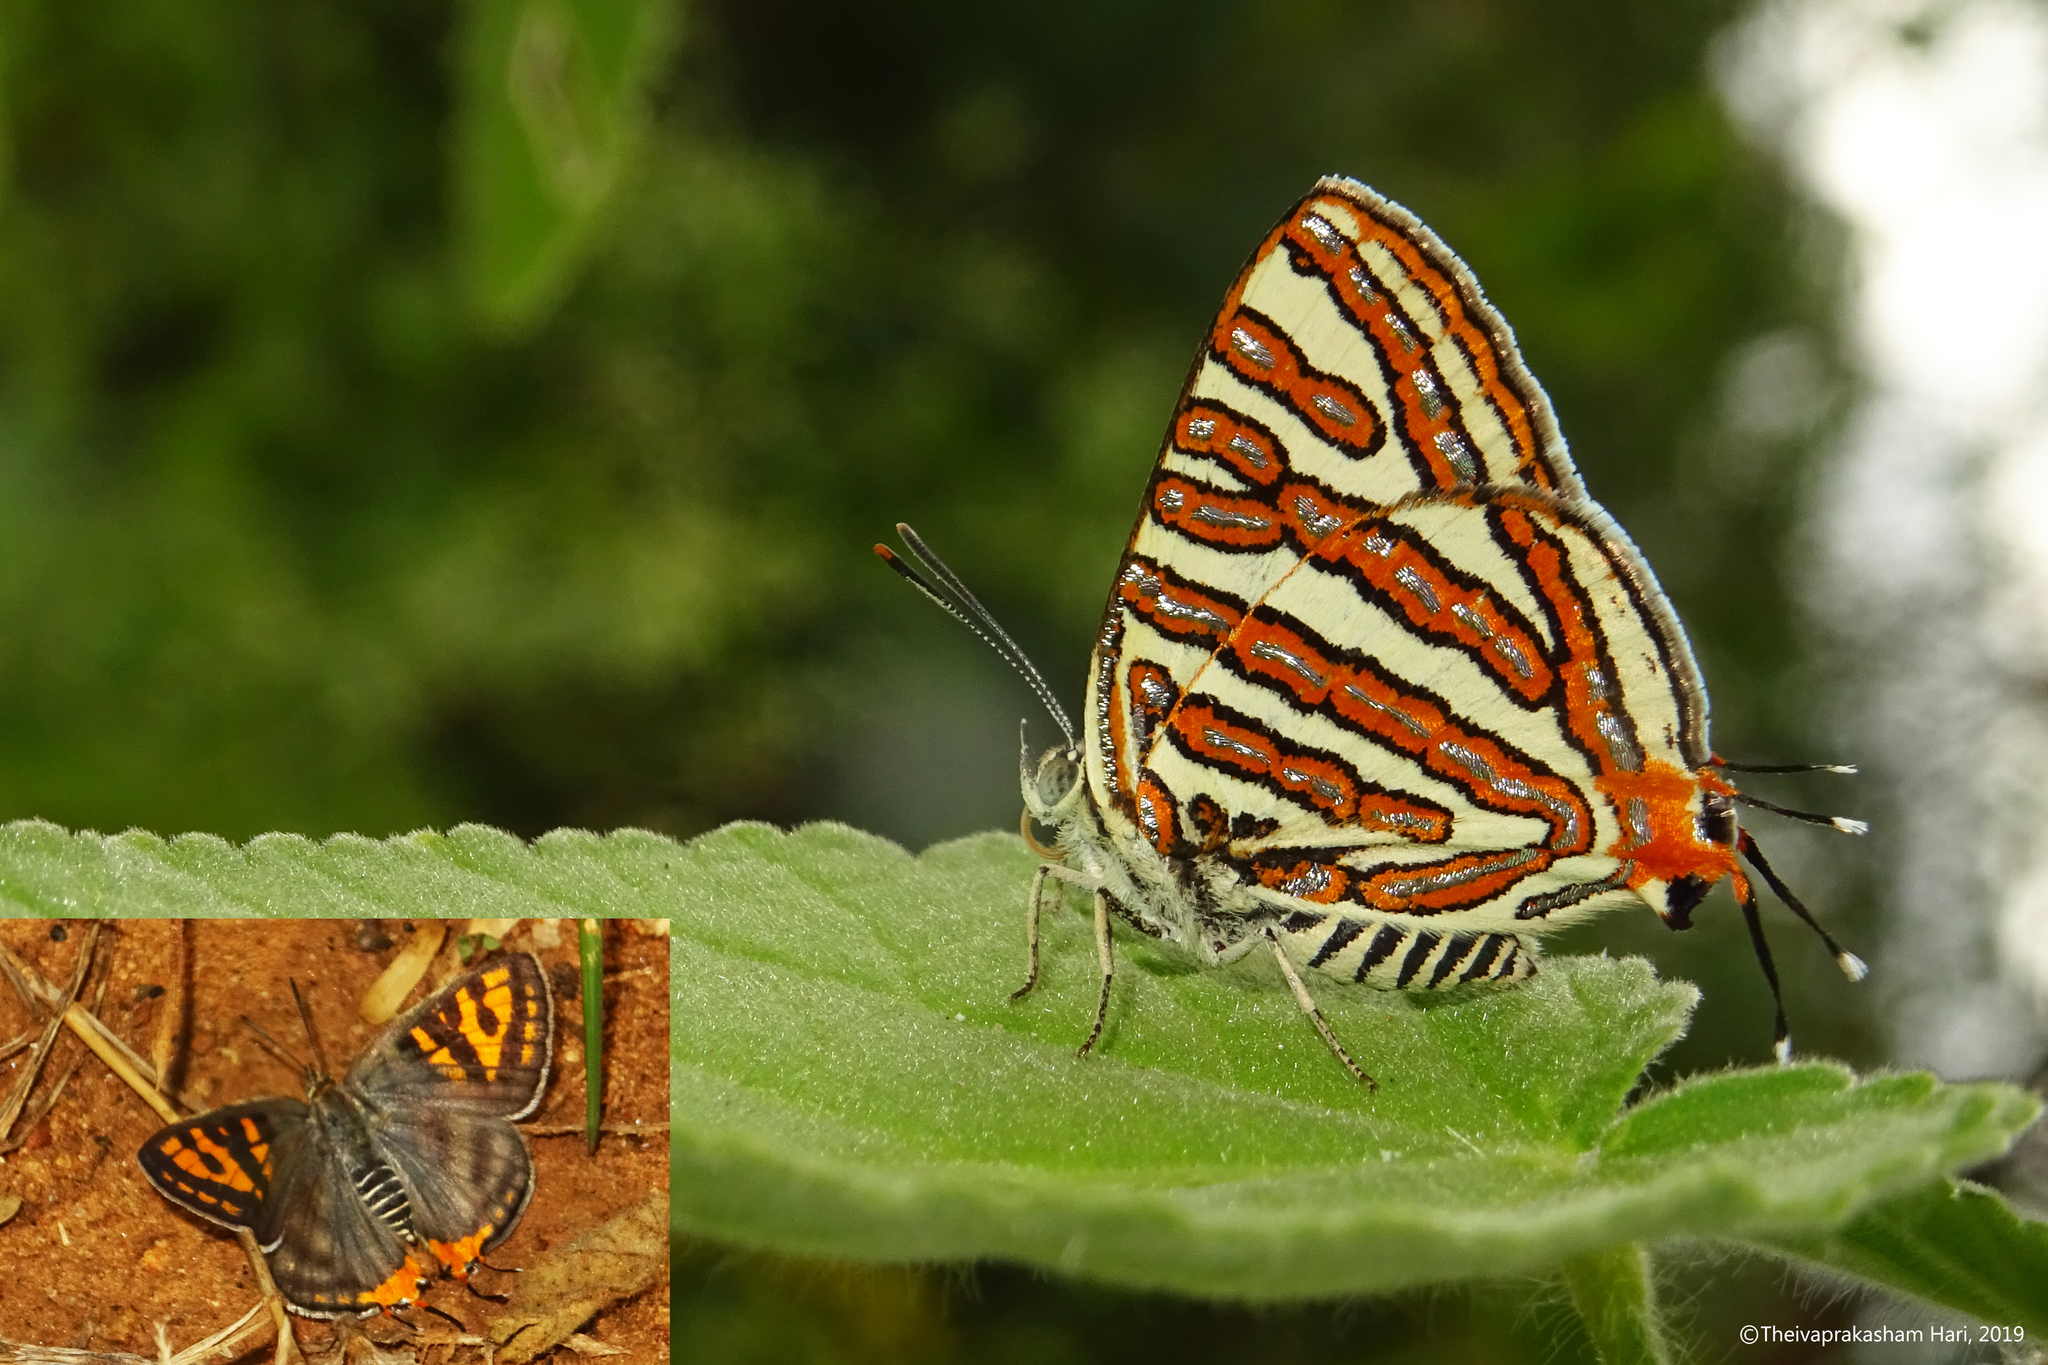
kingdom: Animalia
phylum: Arthropoda
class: Insecta
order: Lepidoptera
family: Lycaenidae
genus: Cigaritis
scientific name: Cigaritis vulcanus
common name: Common silverline
